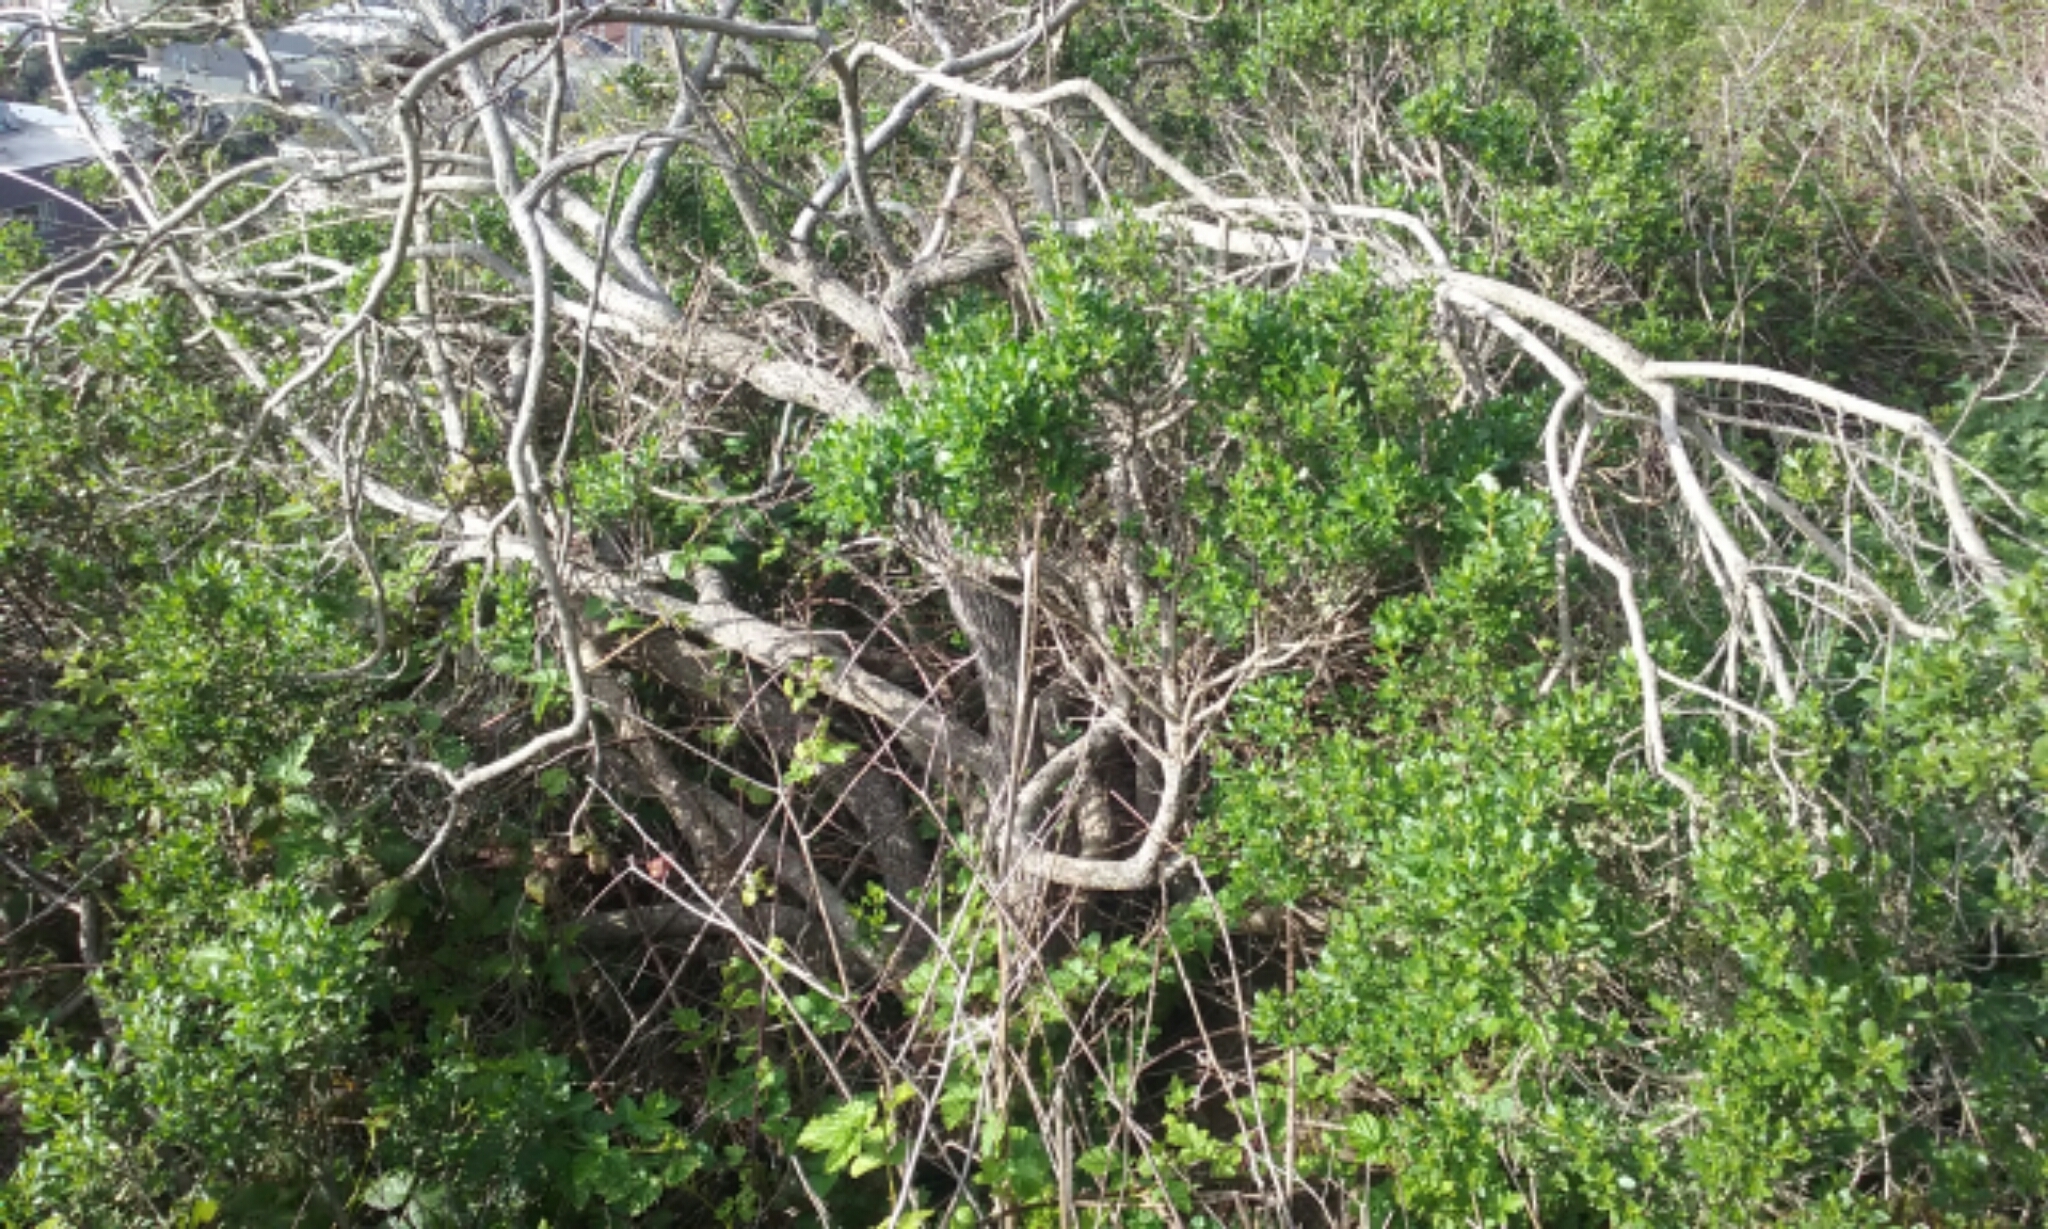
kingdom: Plantae
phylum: Tracheophyta
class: Magnoliopsida
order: Asterales
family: Asteraceae
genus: Baccharis
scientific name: Baccharis pilularis
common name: Coyotebrush
